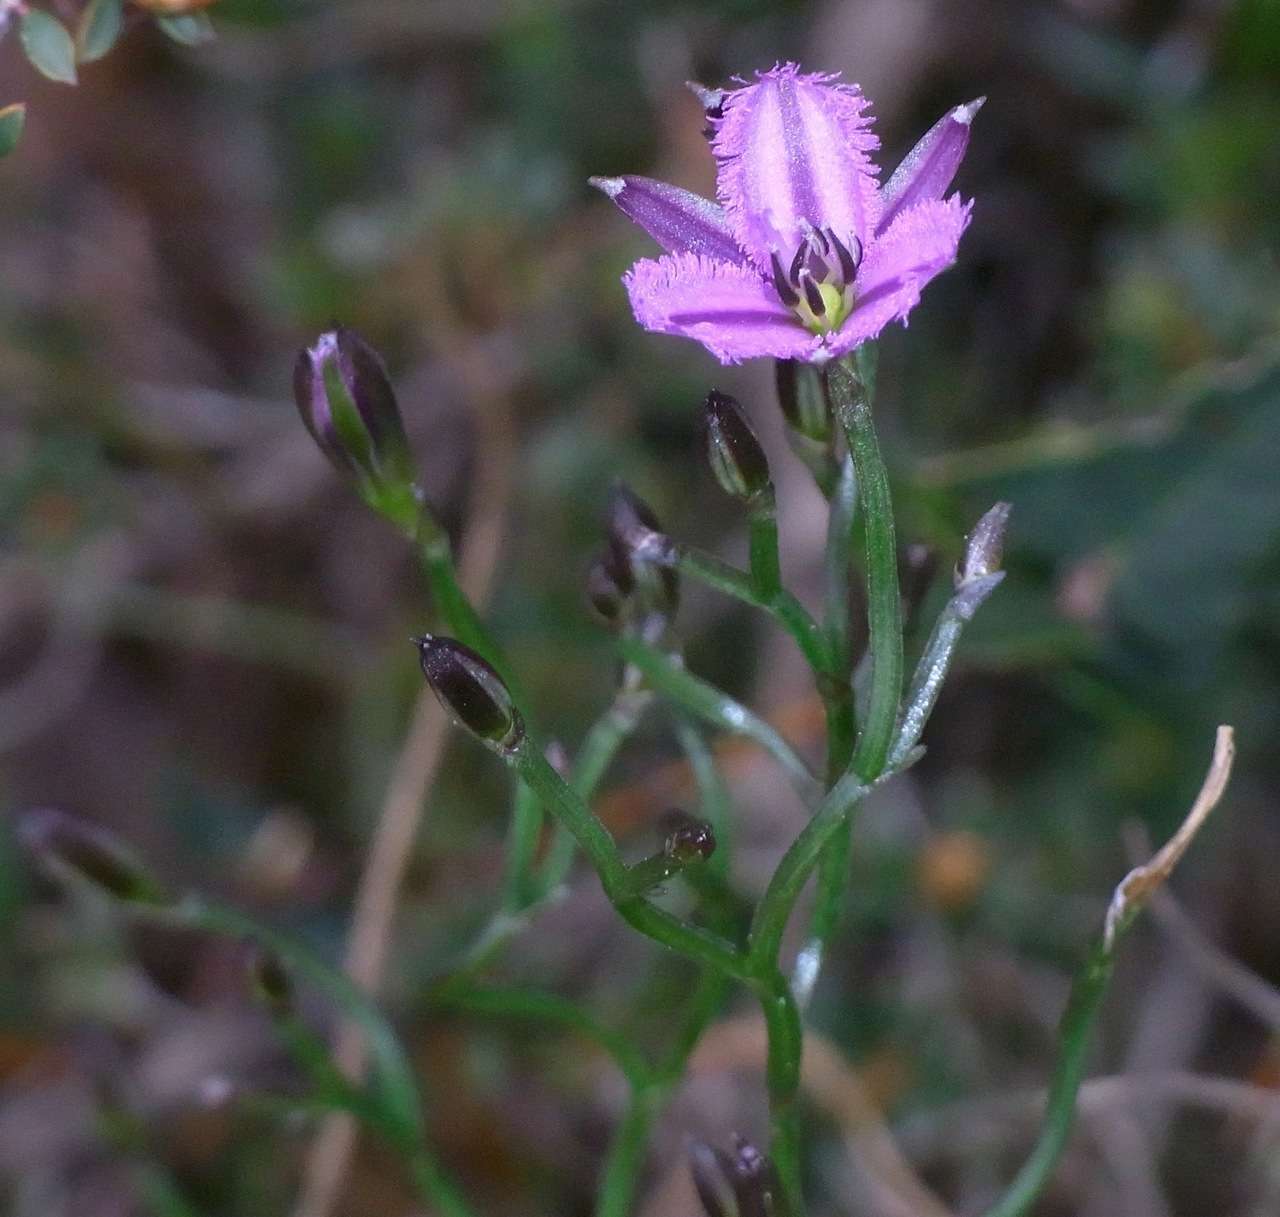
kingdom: Plantae
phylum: Tracheophyta
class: Liliopsida
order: Asparagales
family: Asparagaceae
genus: Thysanotus
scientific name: Thysanotus patersonii
